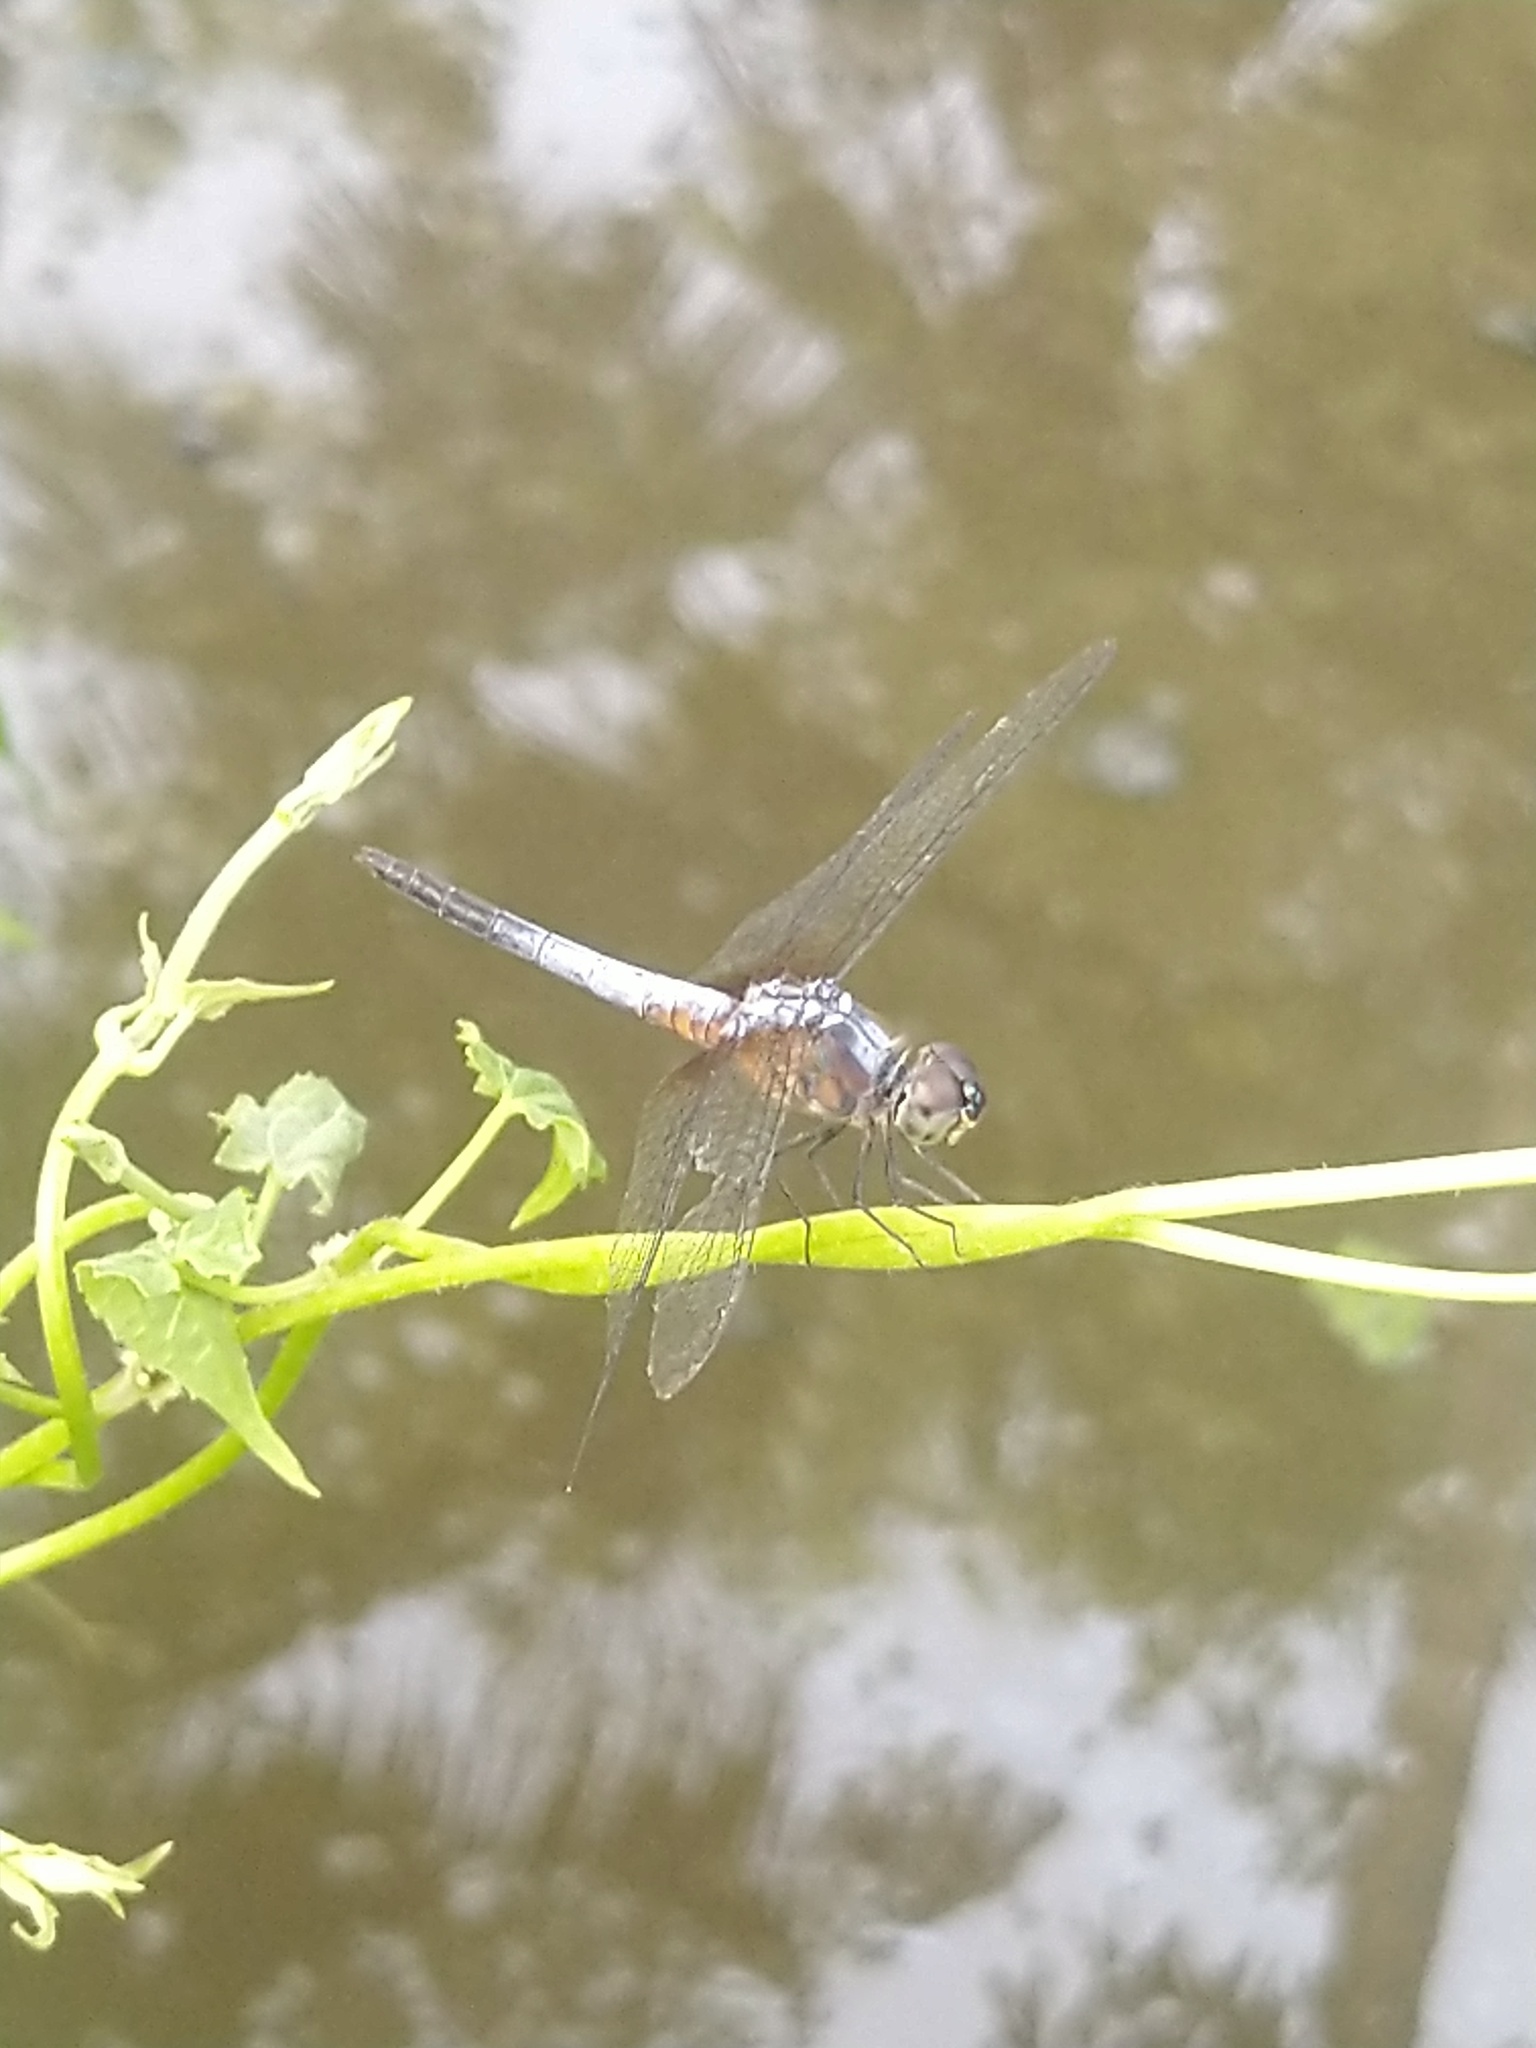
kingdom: Animalia
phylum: Arthropoda
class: Insecta
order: Odonata
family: Libellulidae
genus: Brachydiplax
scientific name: Brachydiplax chalybea
